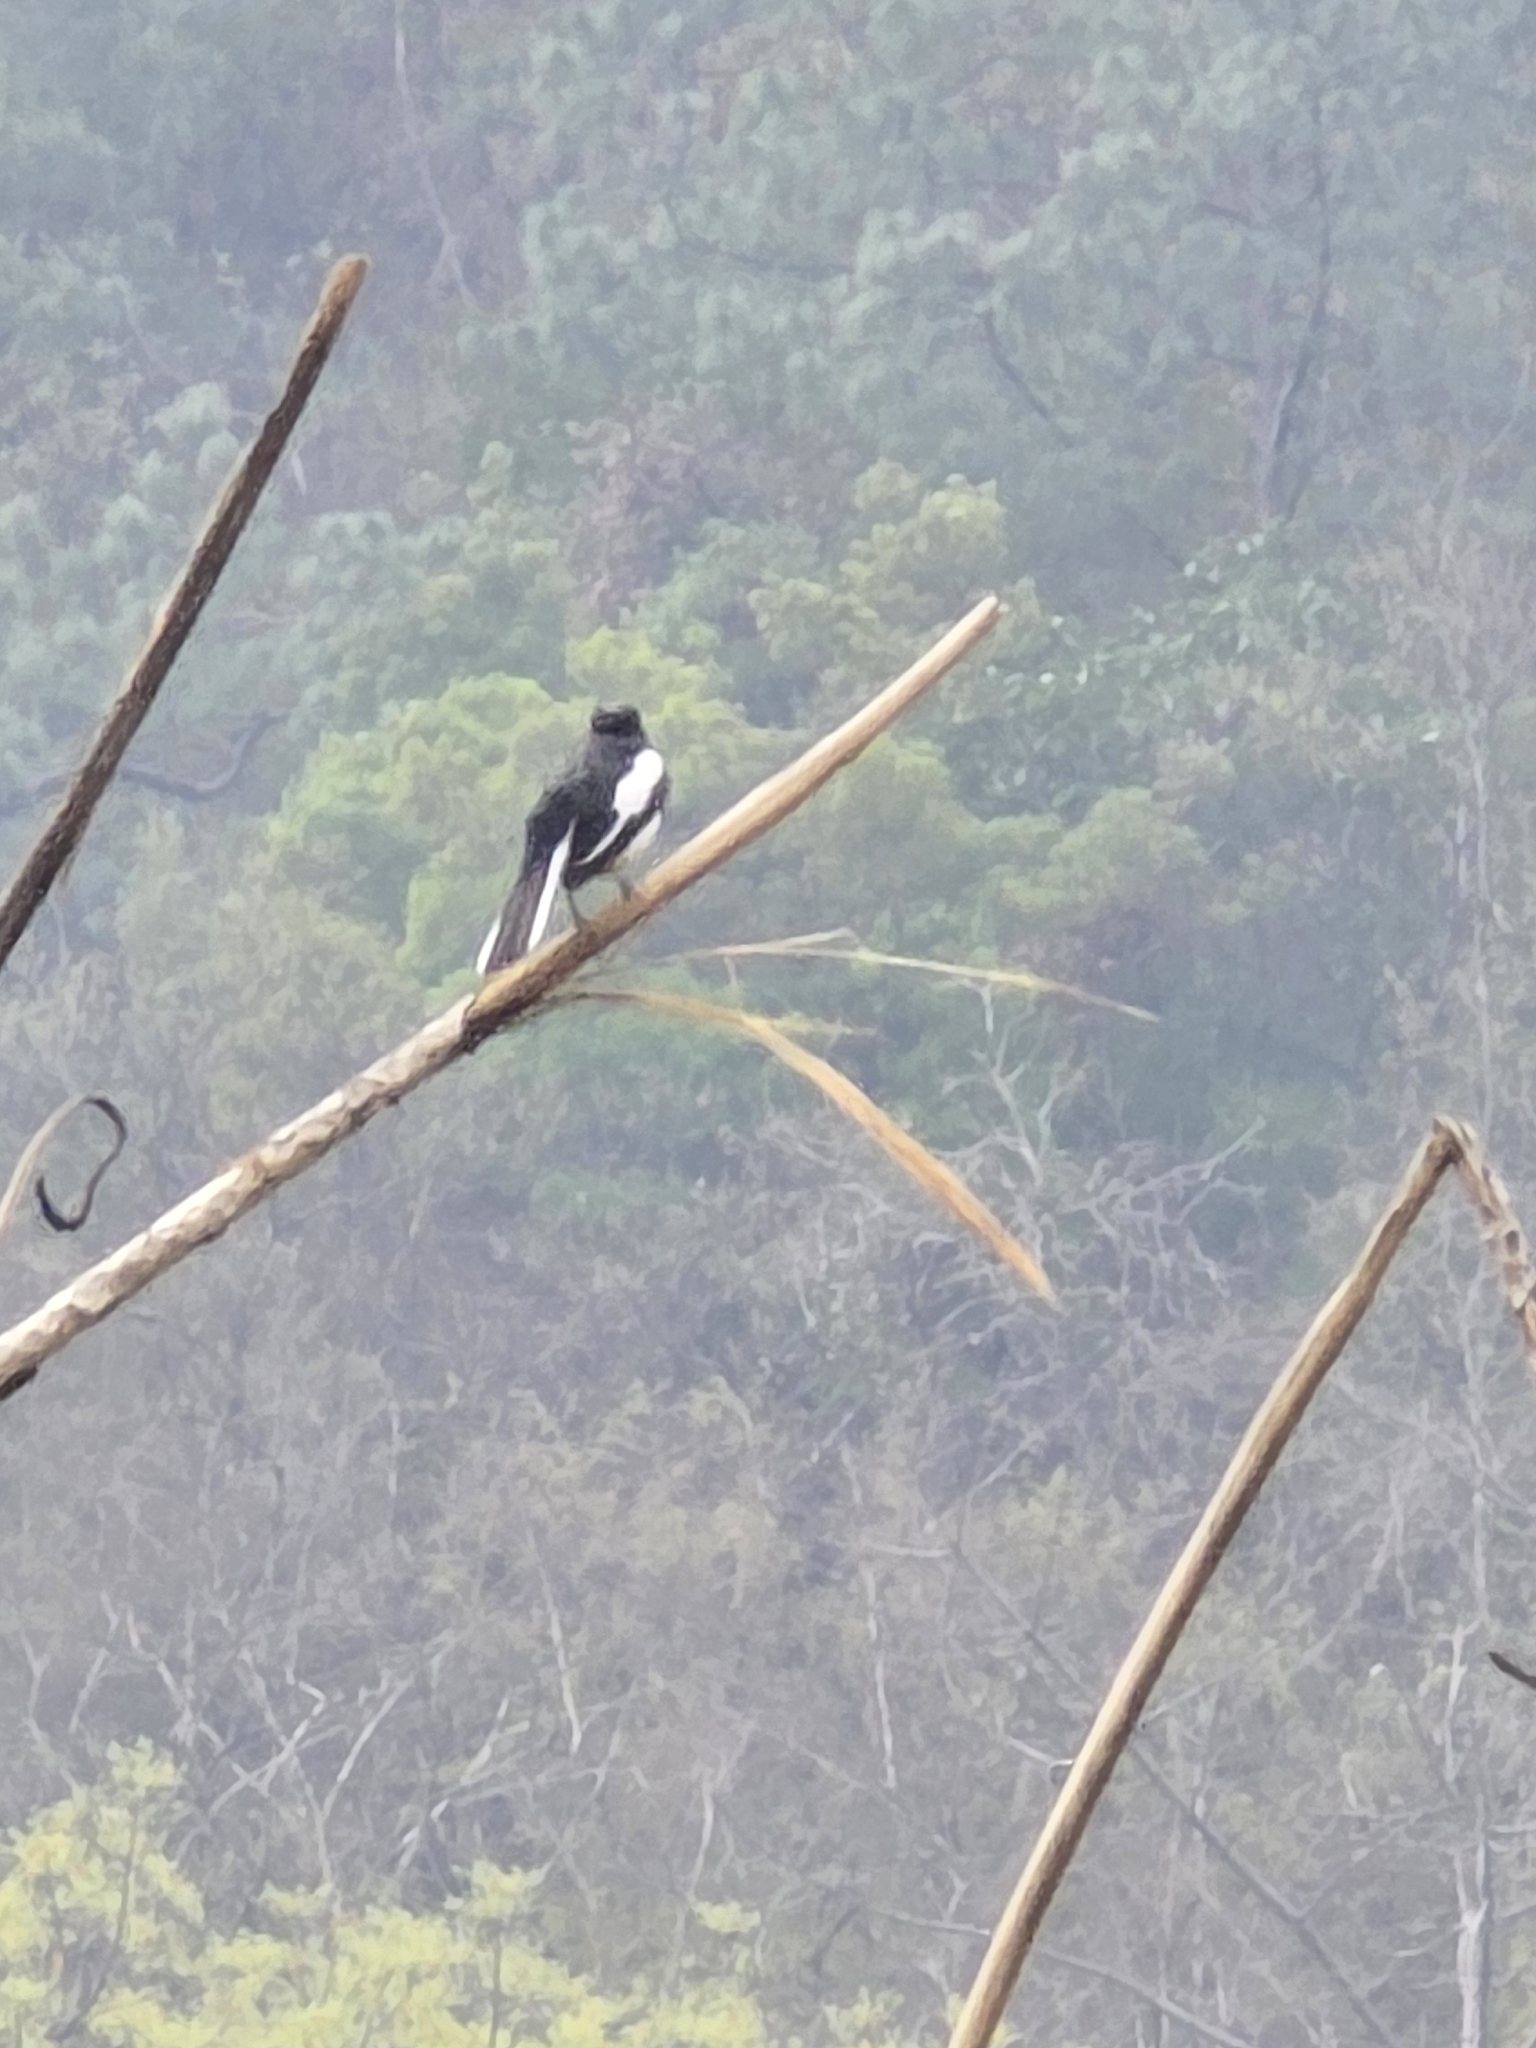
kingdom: Animalia
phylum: Chordata
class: Aves
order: Passeriformes
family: Muscicapidae
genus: Copsychus
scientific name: Copsychus saularis
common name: Oriental magpie-robin
